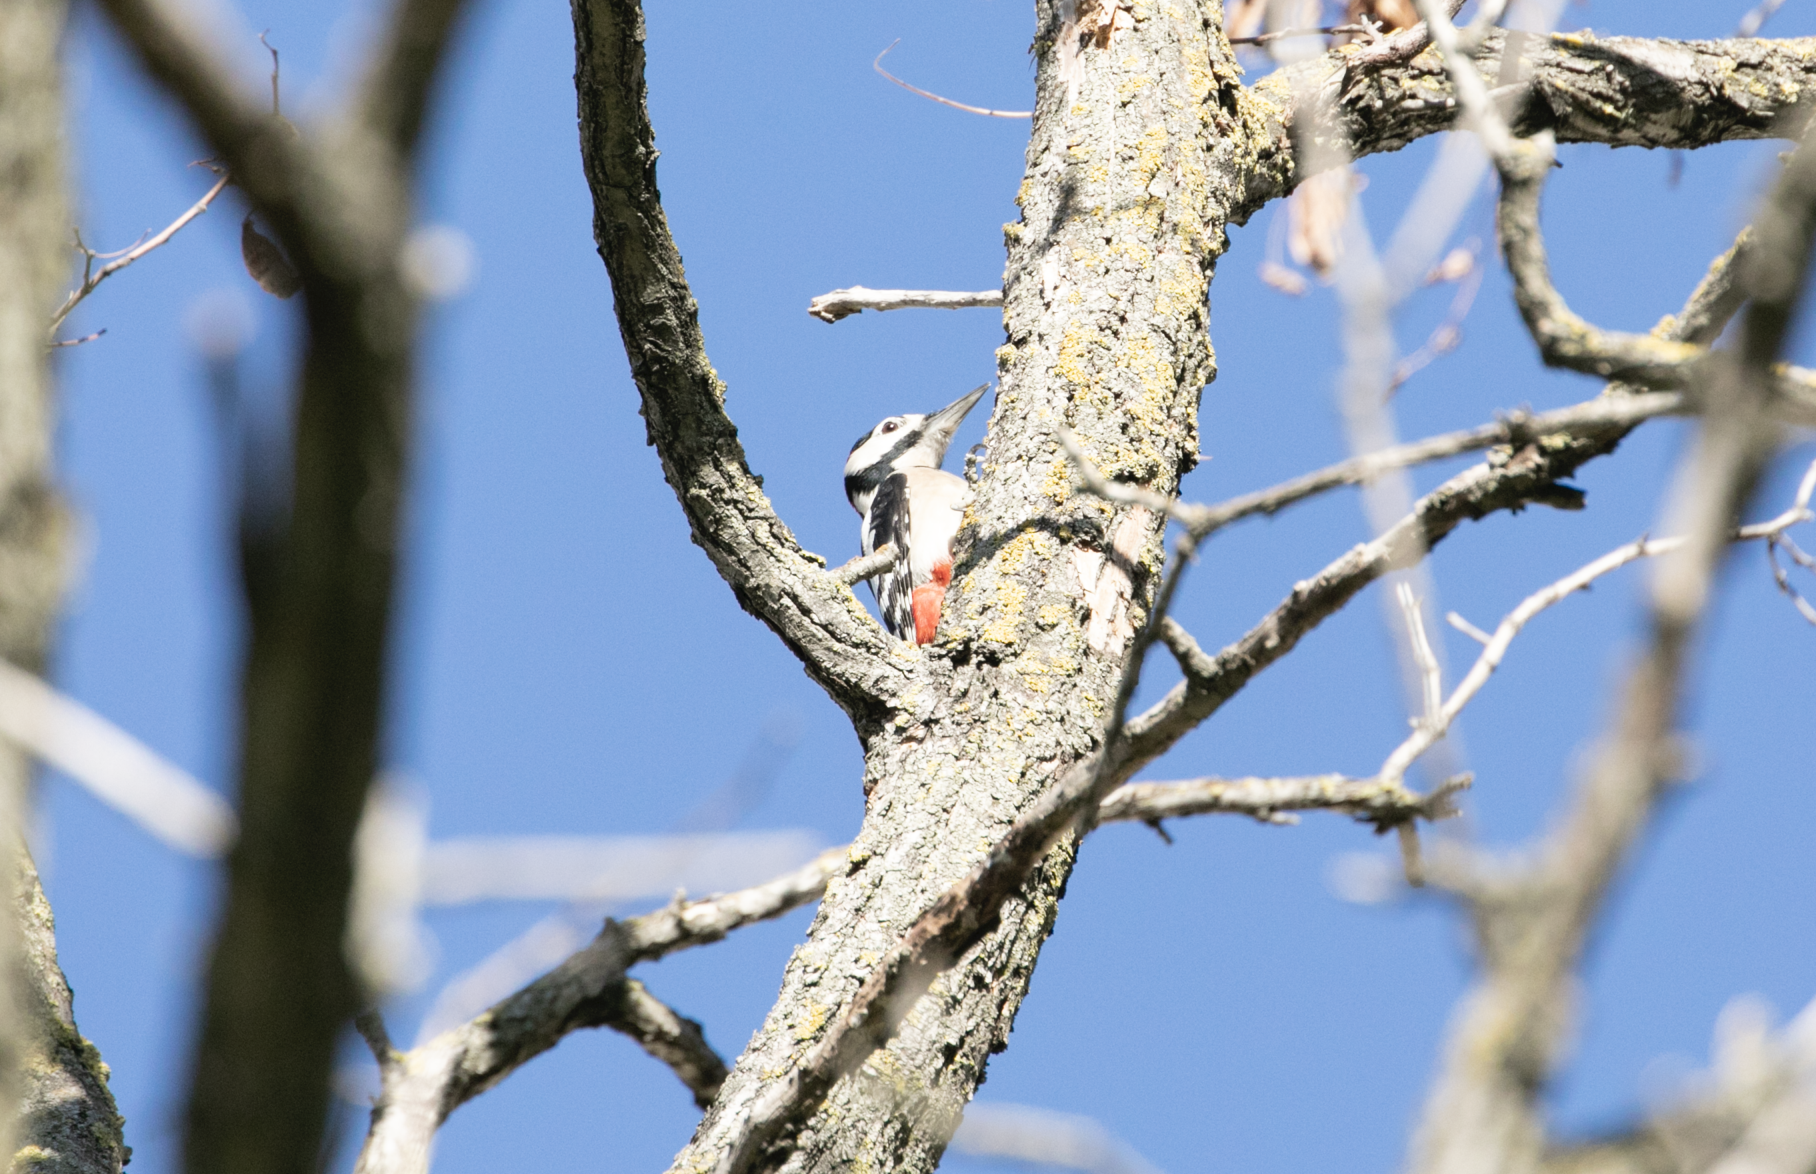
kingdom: Animalia
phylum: Chordata
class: Aves
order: Piciformes
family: Picidae
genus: Dendrocopos
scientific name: Dendrocopos major
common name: Great spotted woodpecker
